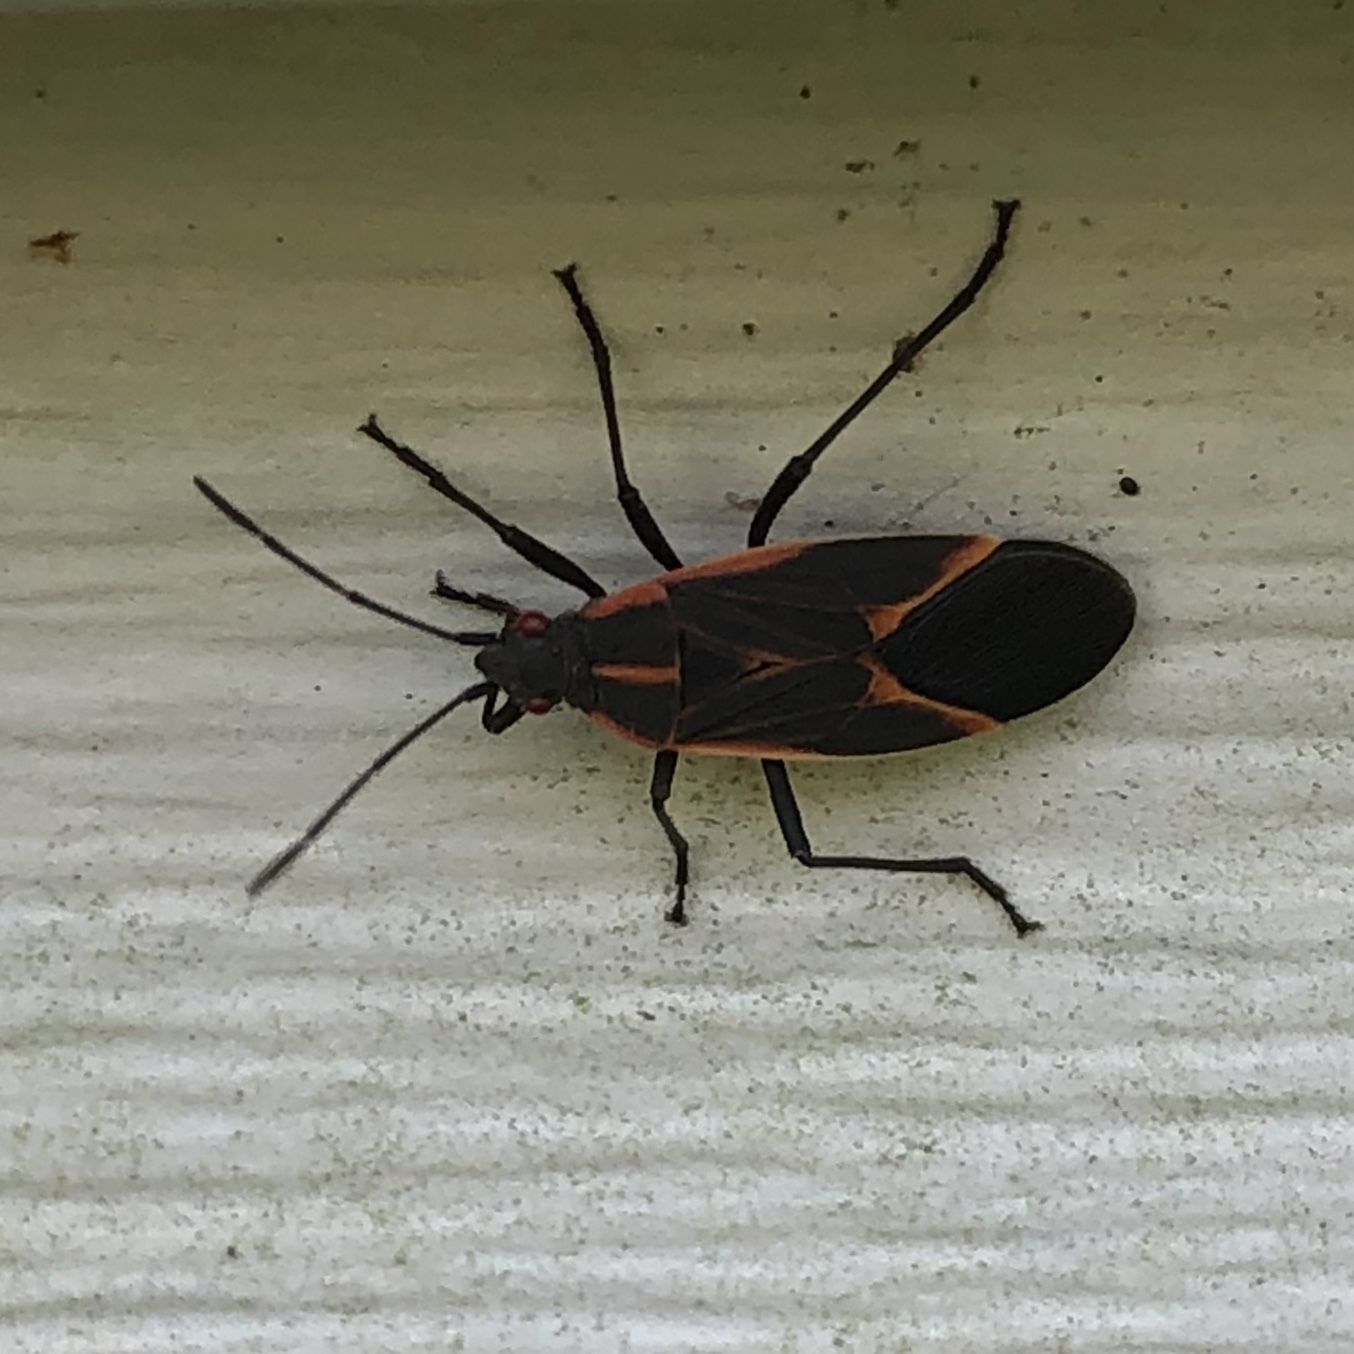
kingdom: Animalia
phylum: Arthropoda
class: Insecta
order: Hemiptera
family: Rhopalidae
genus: Boisea
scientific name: Boisea trivittata
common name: Boxelder bug
